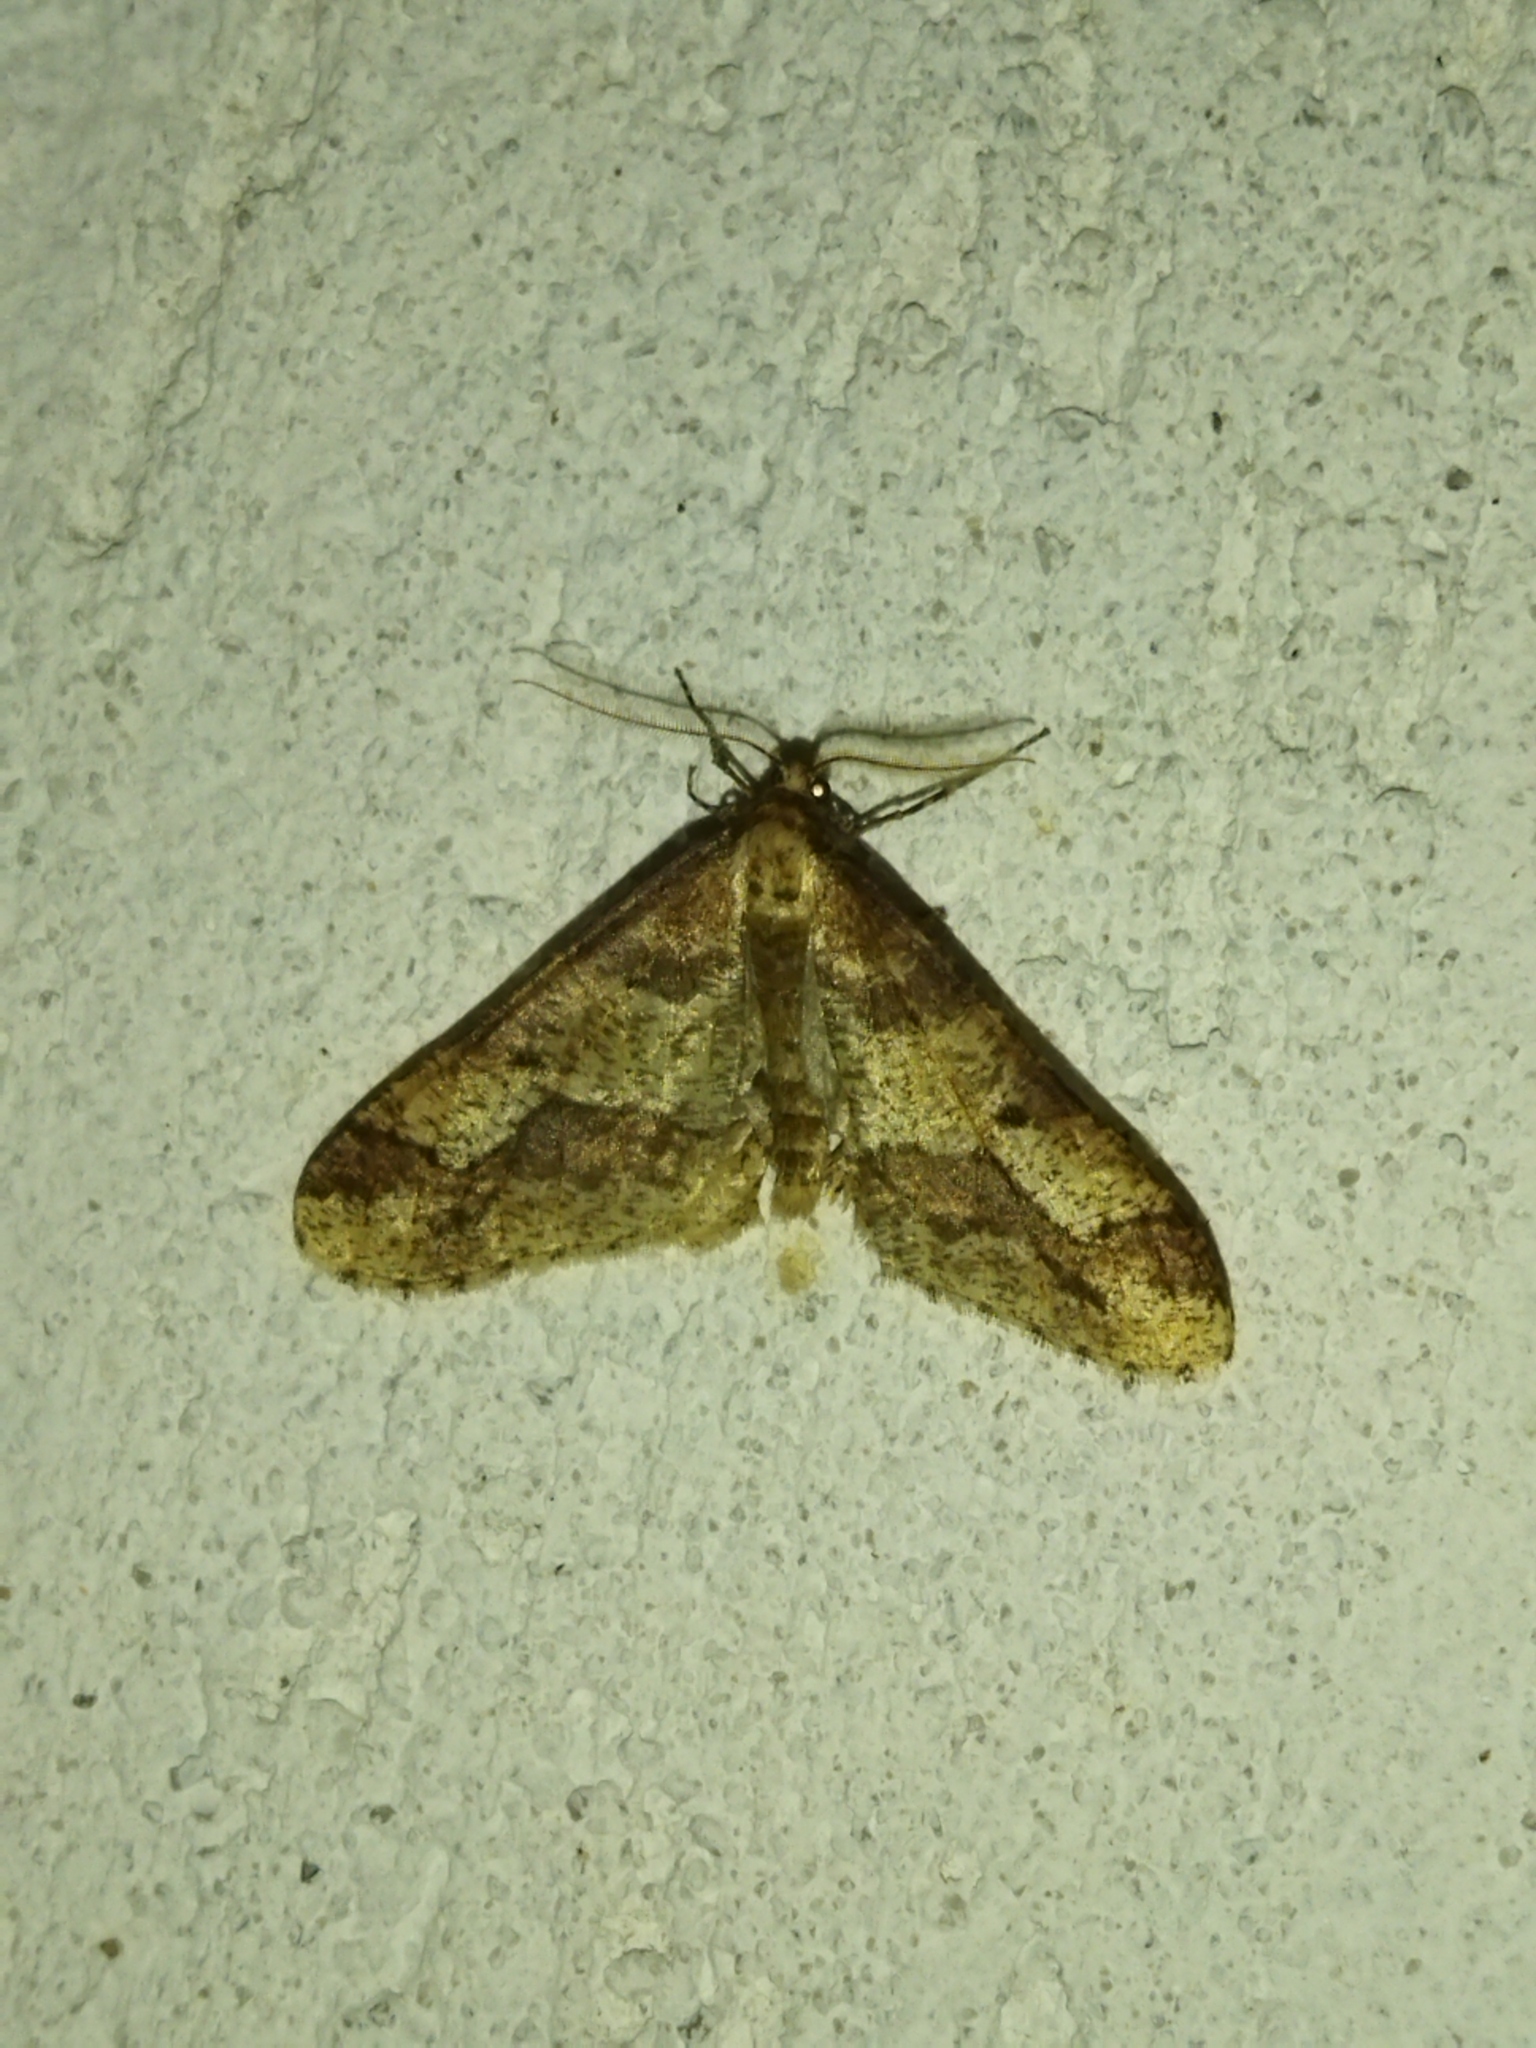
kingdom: Animalia
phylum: Arthropoda
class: Insecta
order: Lepidoptera
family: Geometridae
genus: Erannis
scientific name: Erannis defoliaria
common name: Mottled umber
